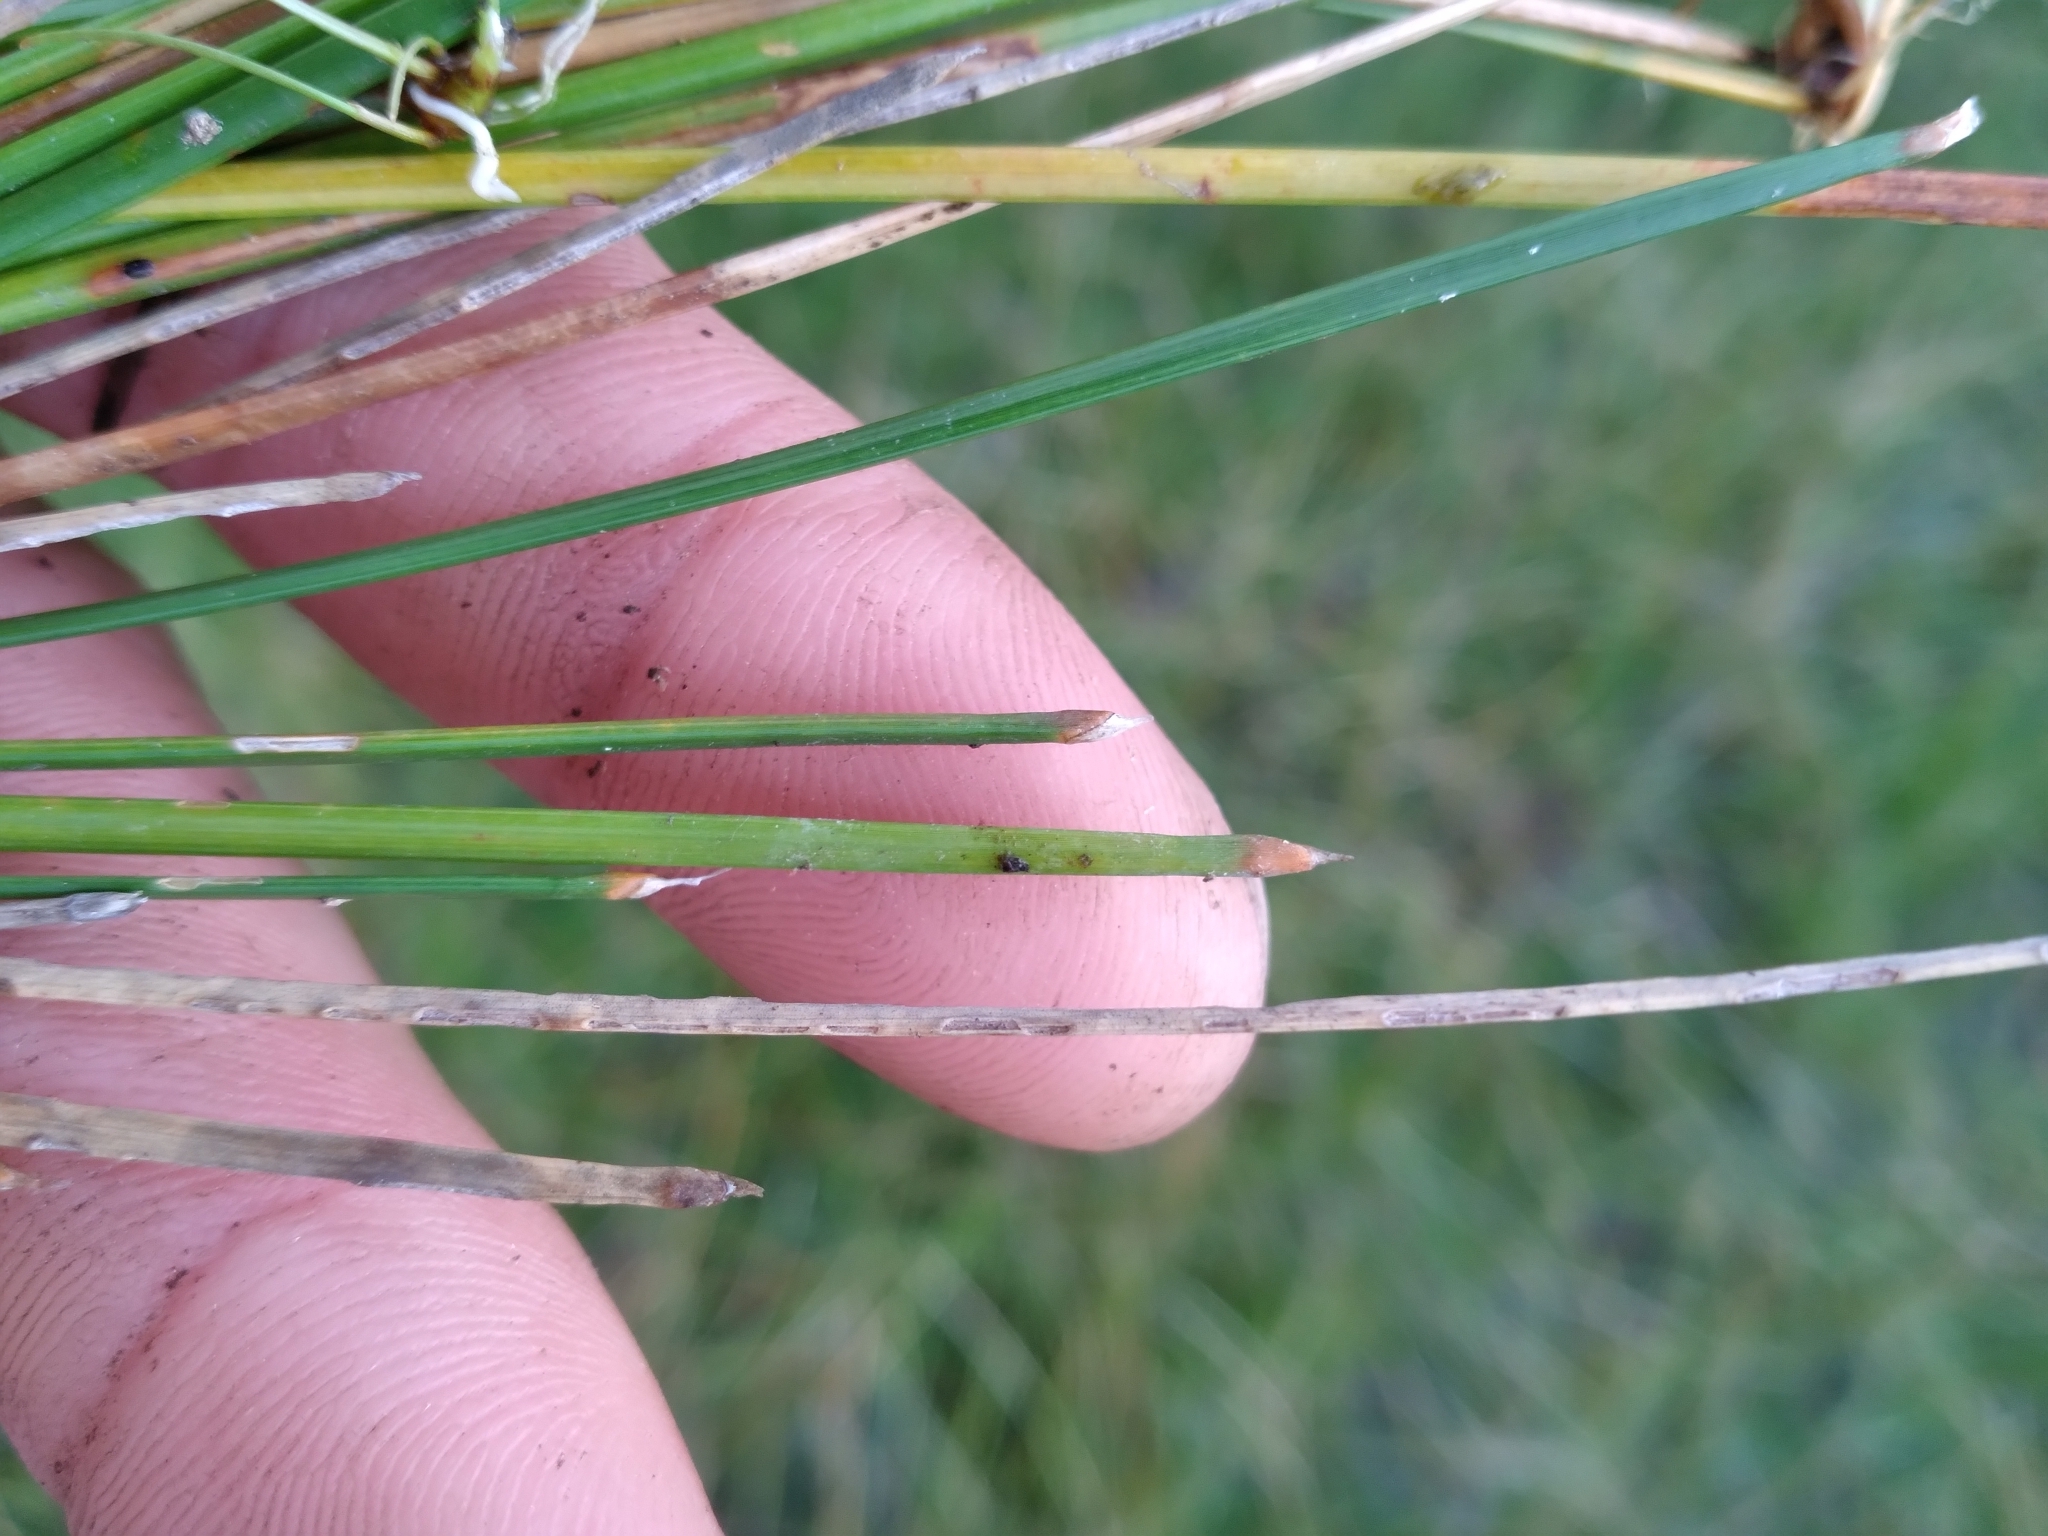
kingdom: Plantae
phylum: Tracheophyta
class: Liliopsida
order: Poales
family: Cyperaceae
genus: Eleocharis
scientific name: Eleocharis melanocarpa
